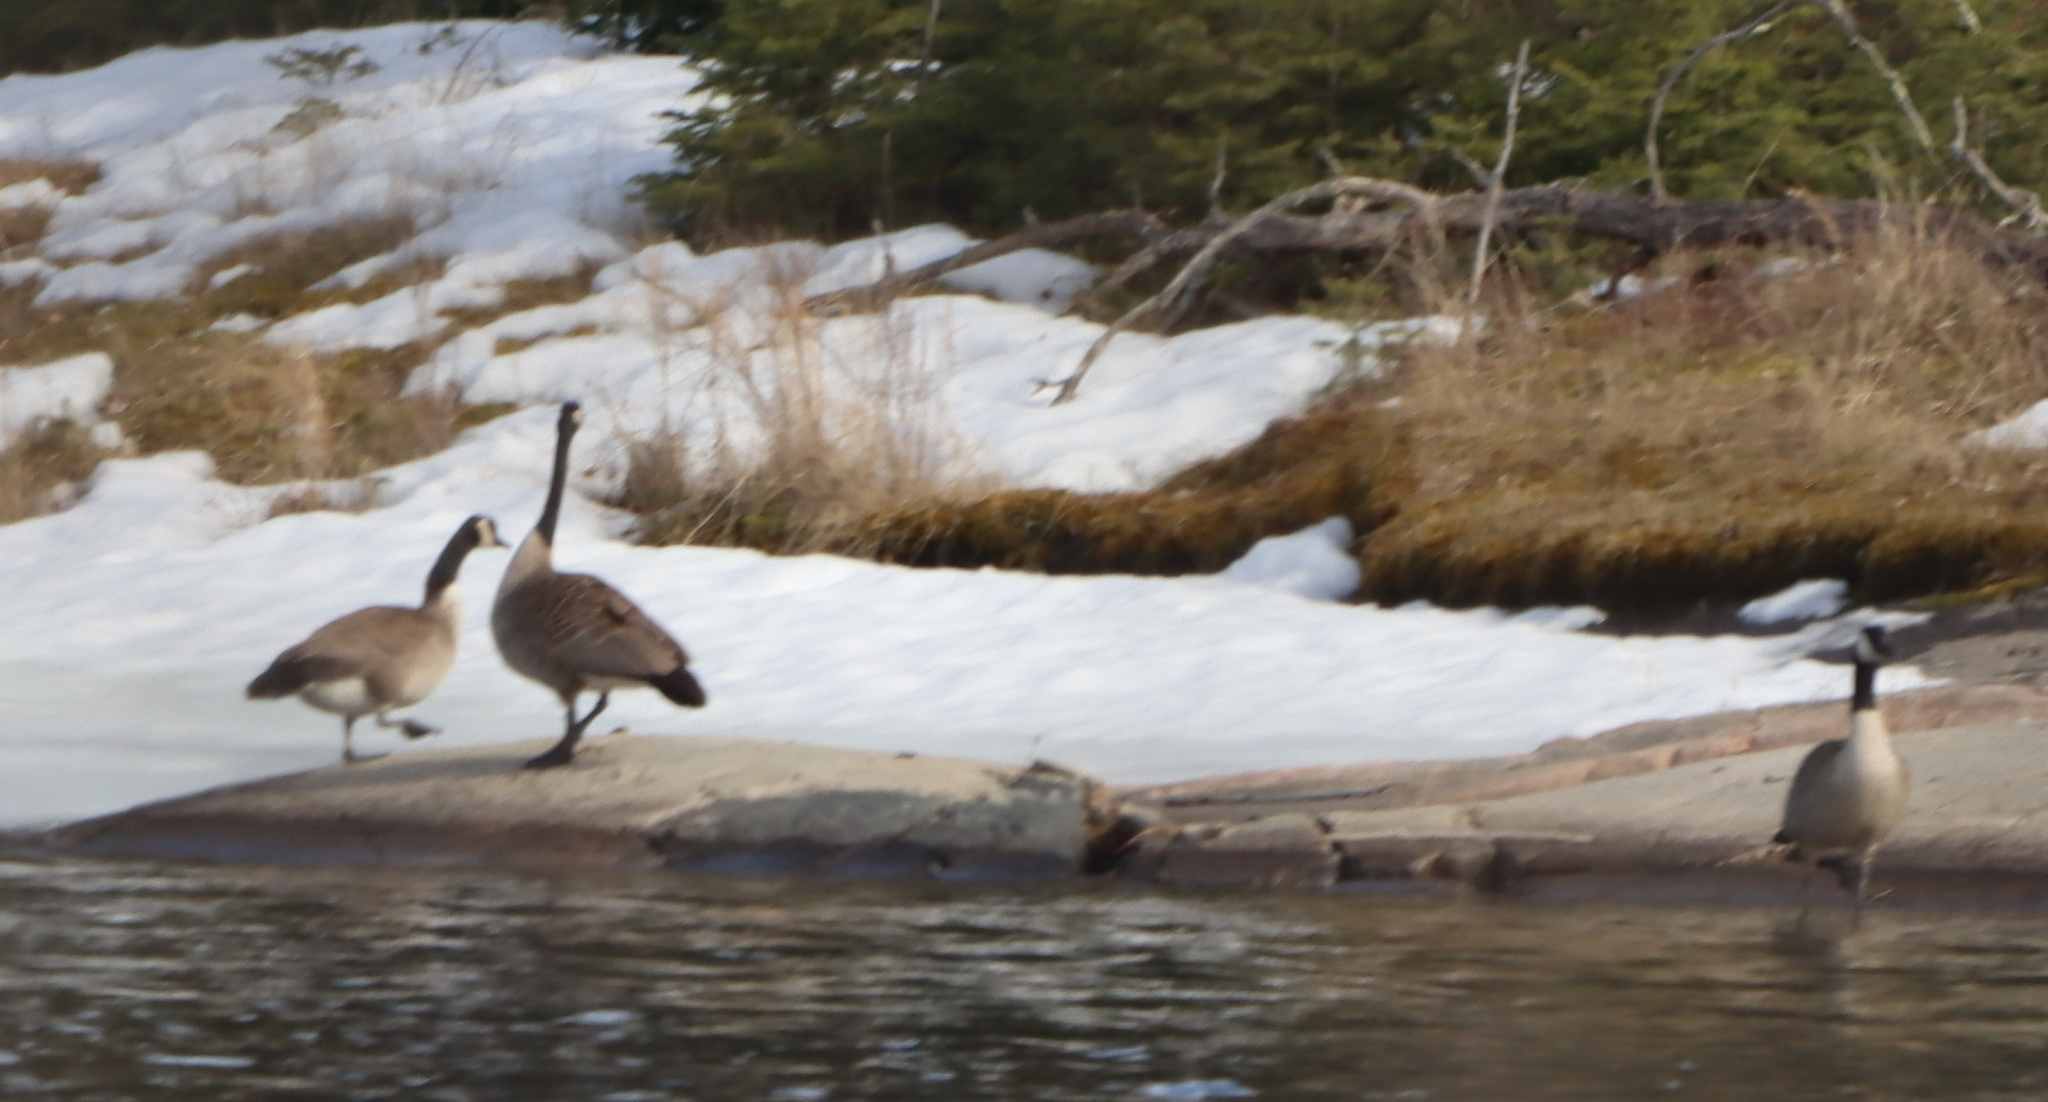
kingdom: Animalia
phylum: Chordata
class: Aves
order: Anseriformes
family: Anatidae
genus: Branta
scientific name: Branta canadensis
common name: Canada goose
